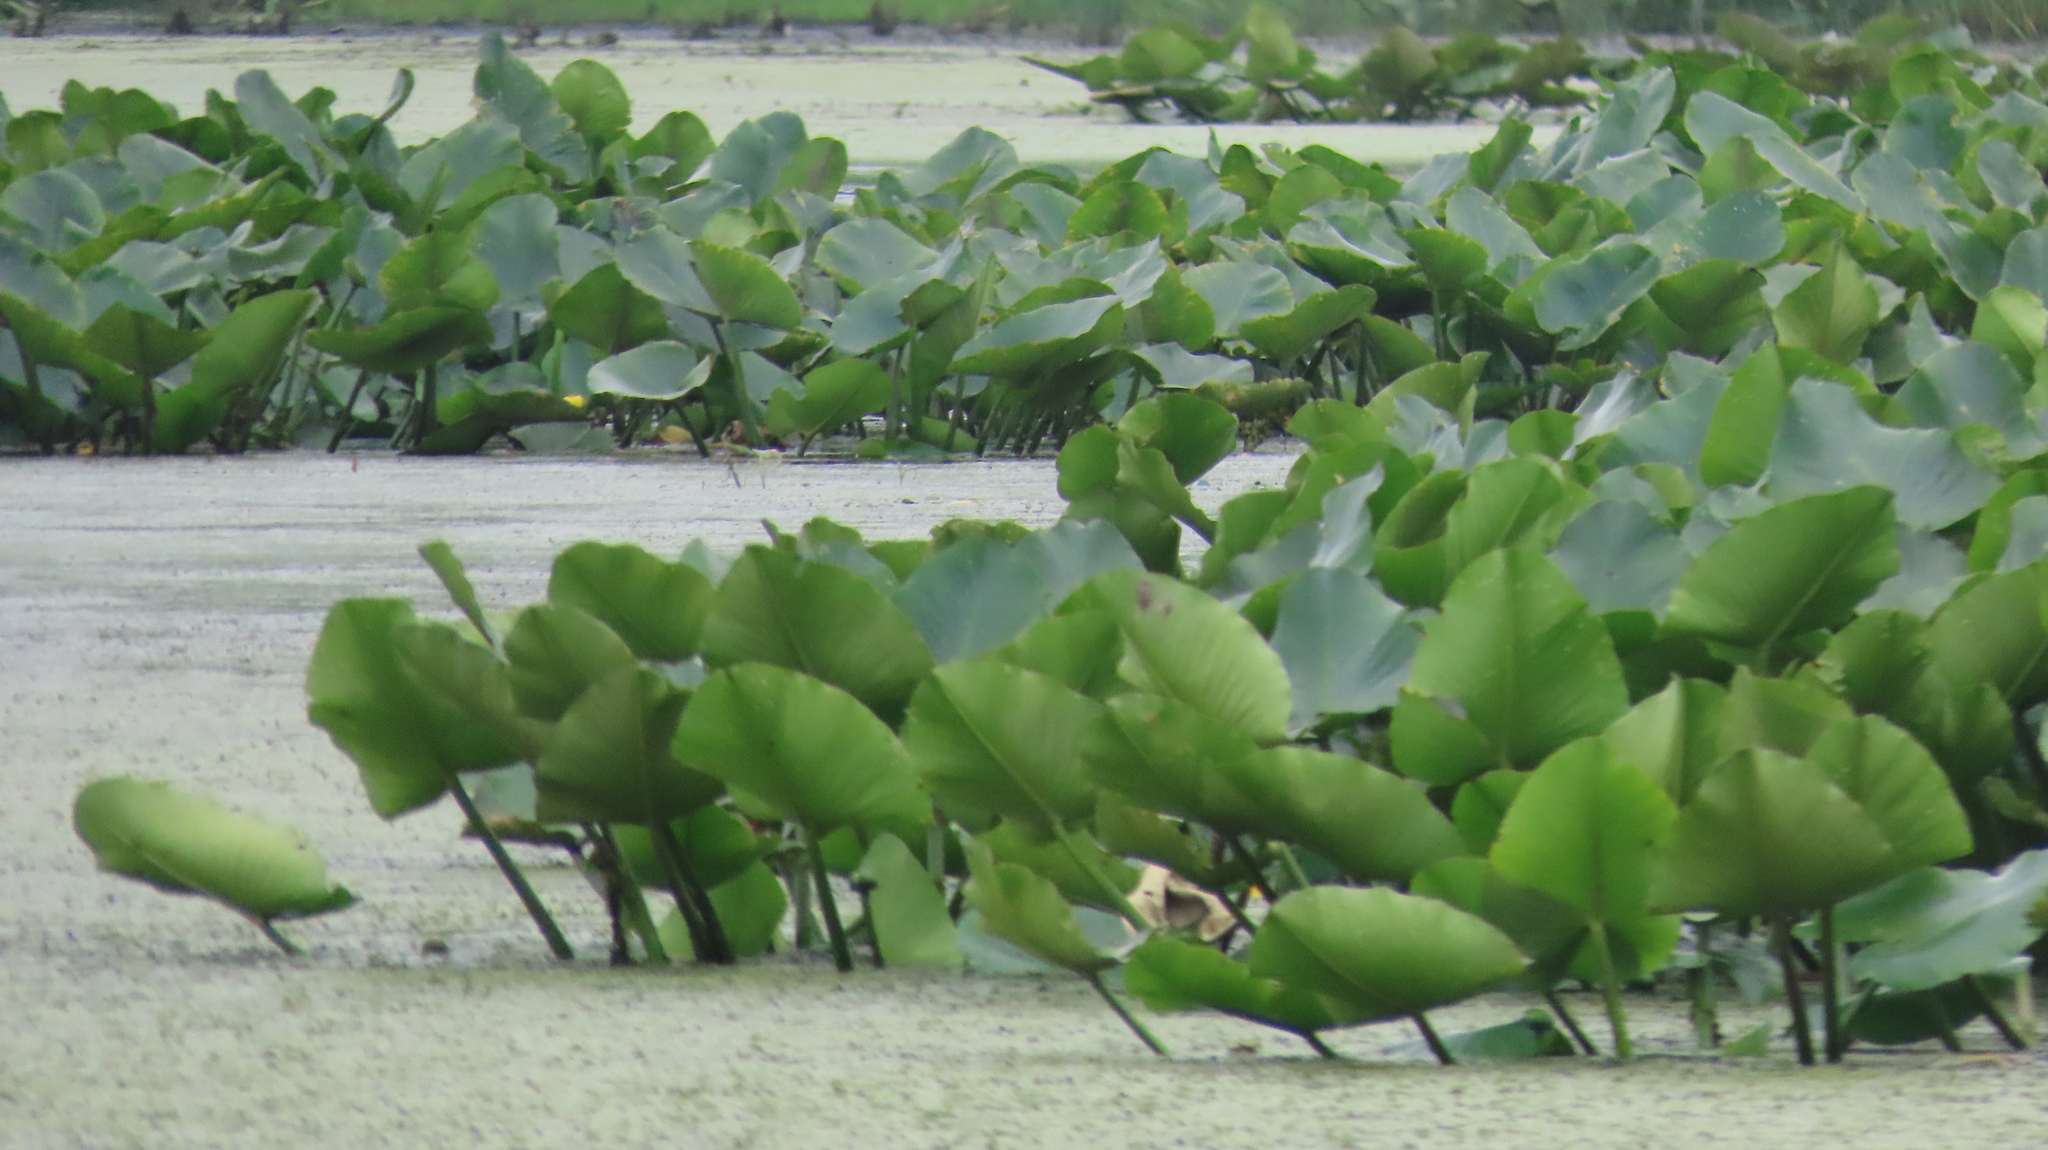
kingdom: Plantae
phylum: Tracheophyta
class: Magnoliopsida
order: Nymphaeales
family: Nymphaeaceae
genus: Nuphar
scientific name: Nuphar advena
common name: Spatter-dock
